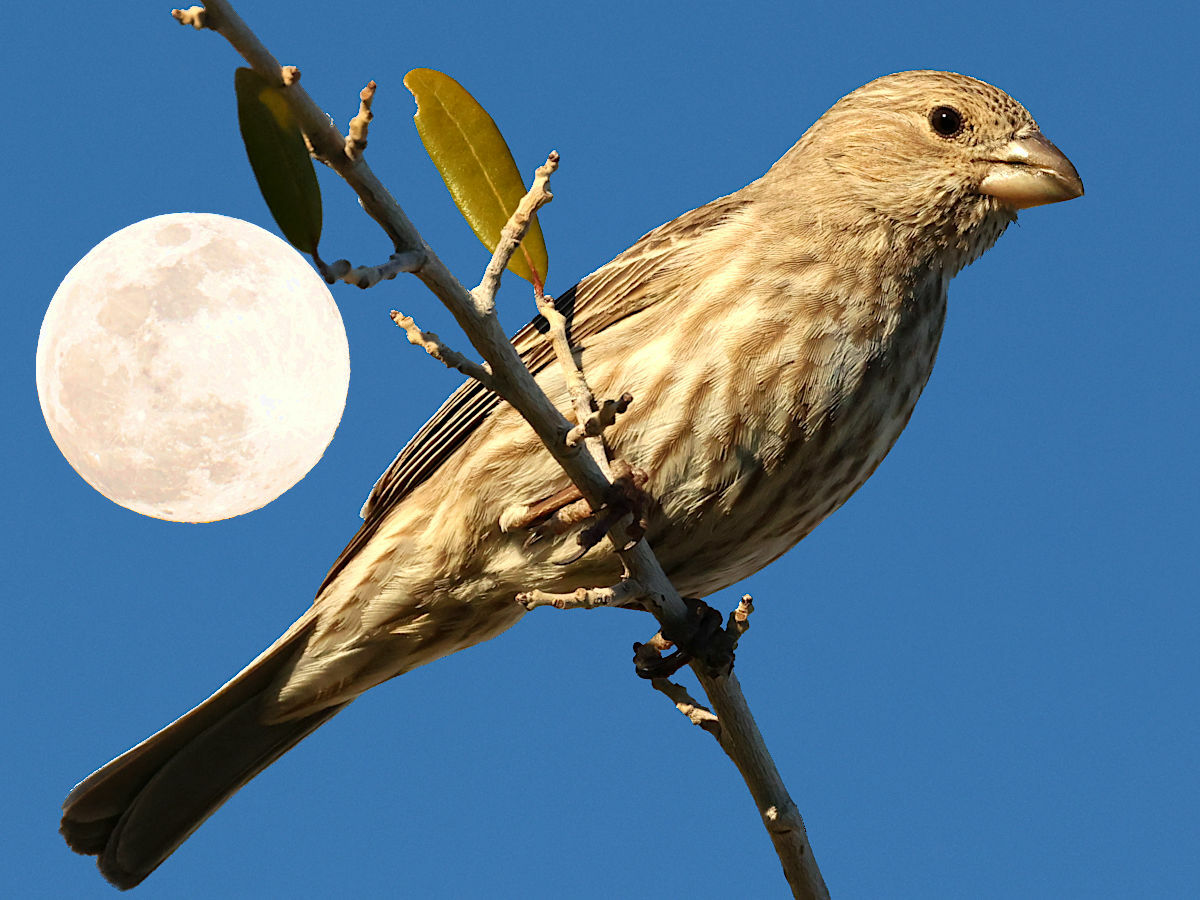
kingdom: Animalia
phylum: Chordata
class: Aves
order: Passeriformes
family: Fringillidae
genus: Haemorhous
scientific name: Haemorhous mexicanus
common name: House finch
